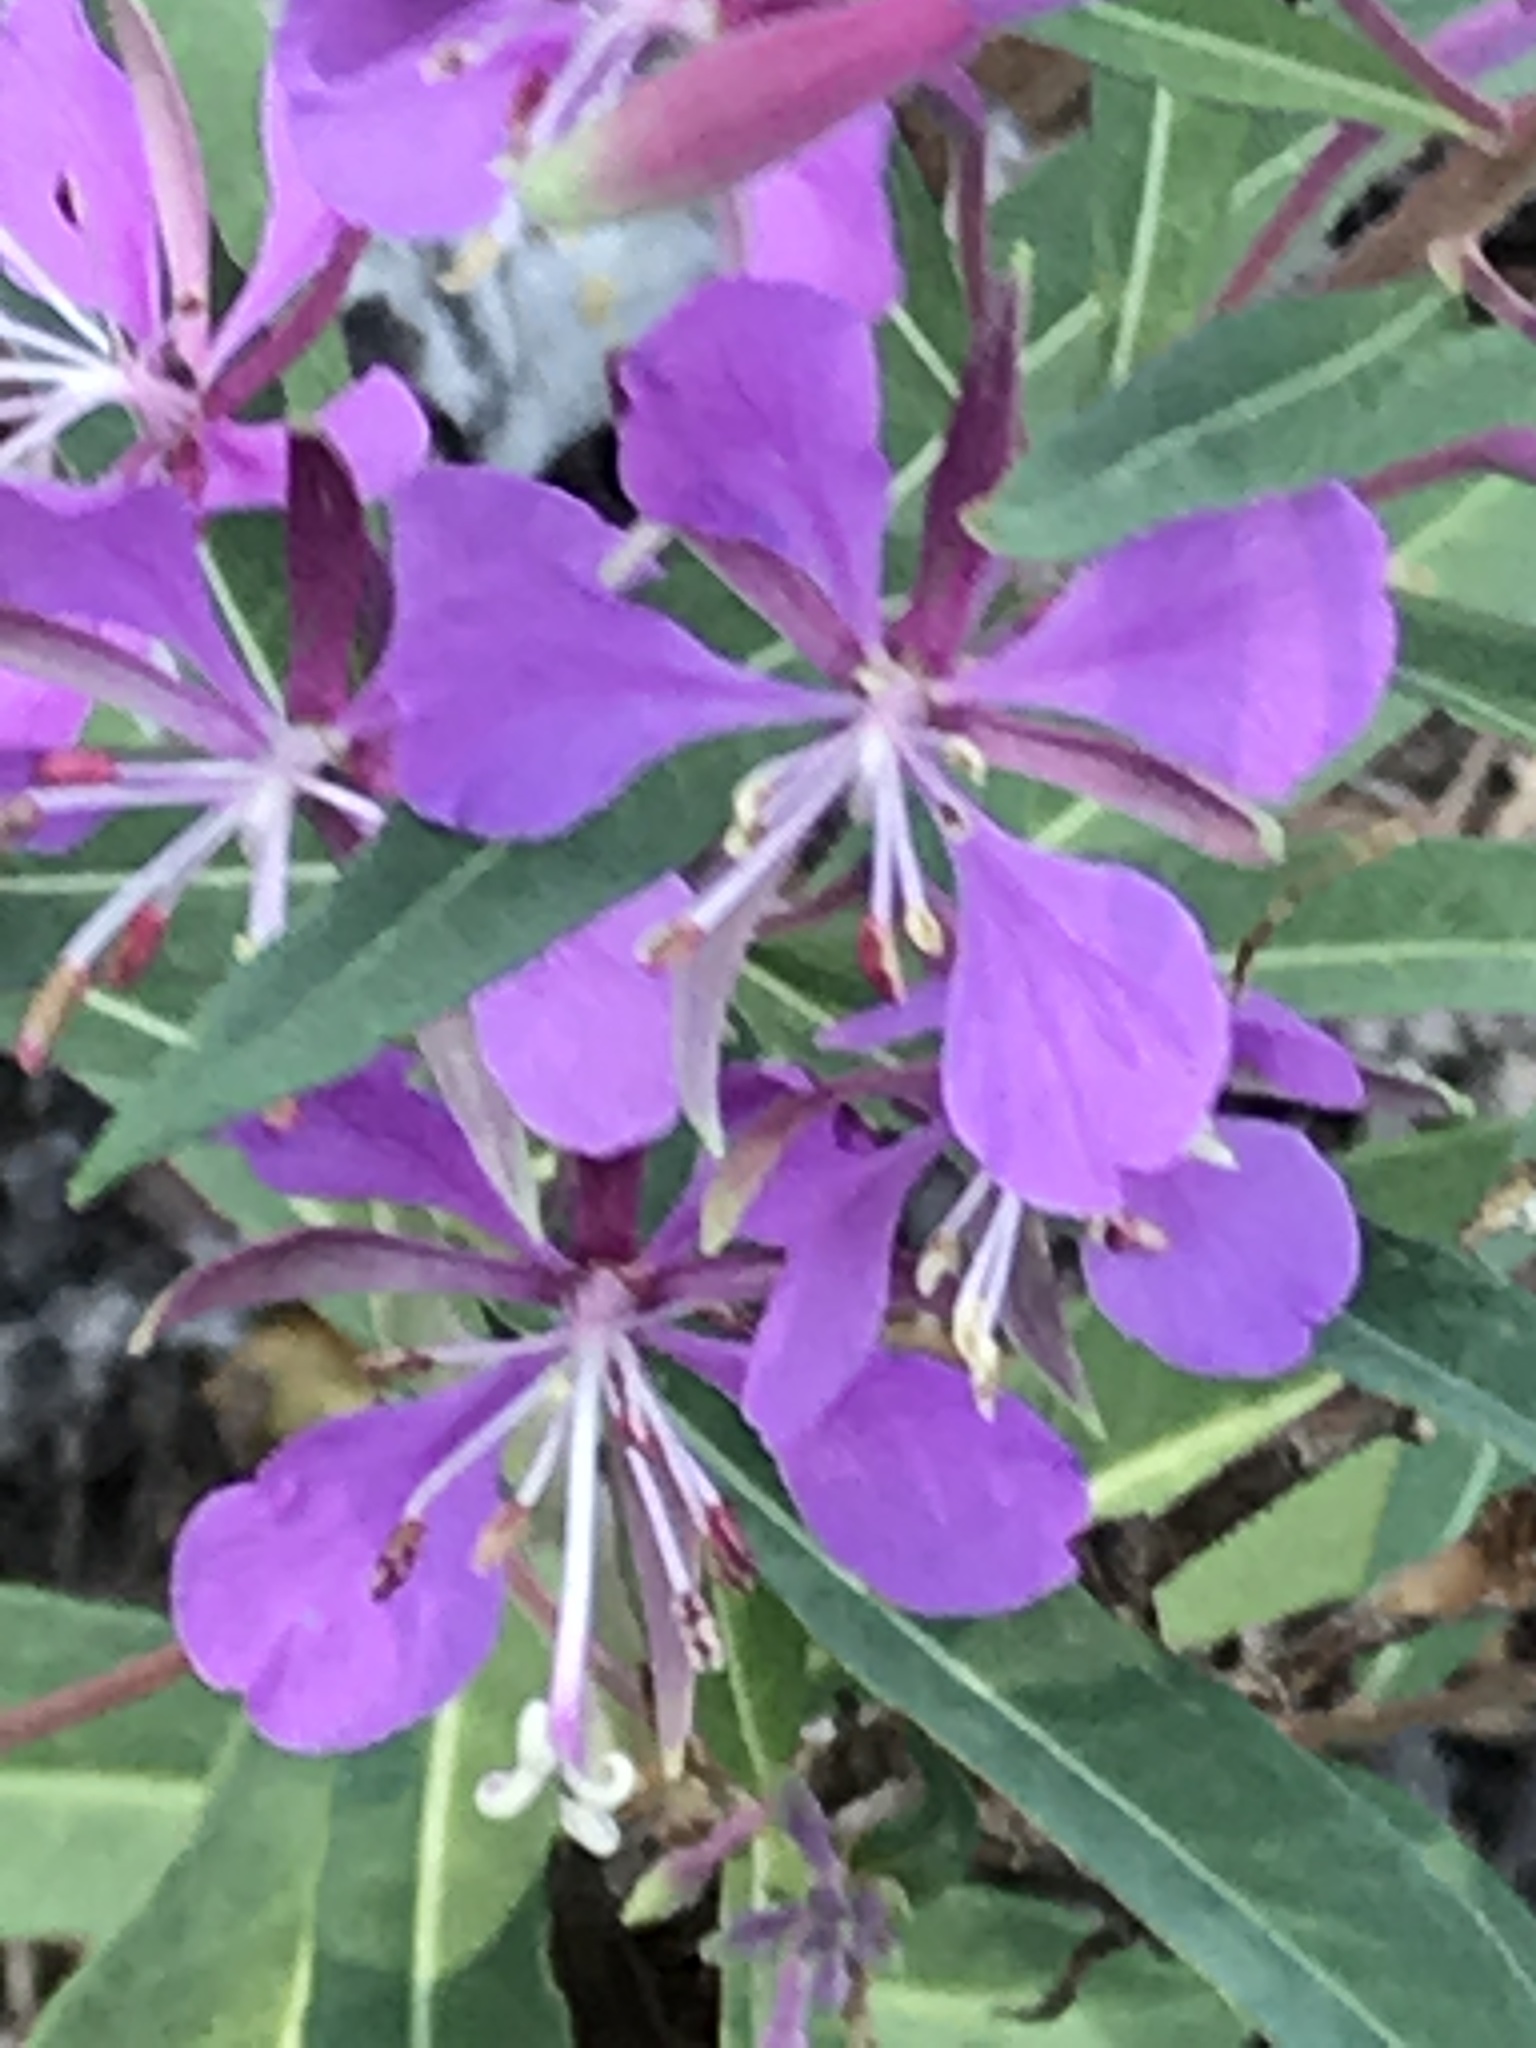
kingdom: Plantae
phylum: Tracheophyta
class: Magnoliopsida
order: Myrtales
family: Onagraceae
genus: Chamaenerion
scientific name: Chamaenerion angustifolium
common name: Fireweed
